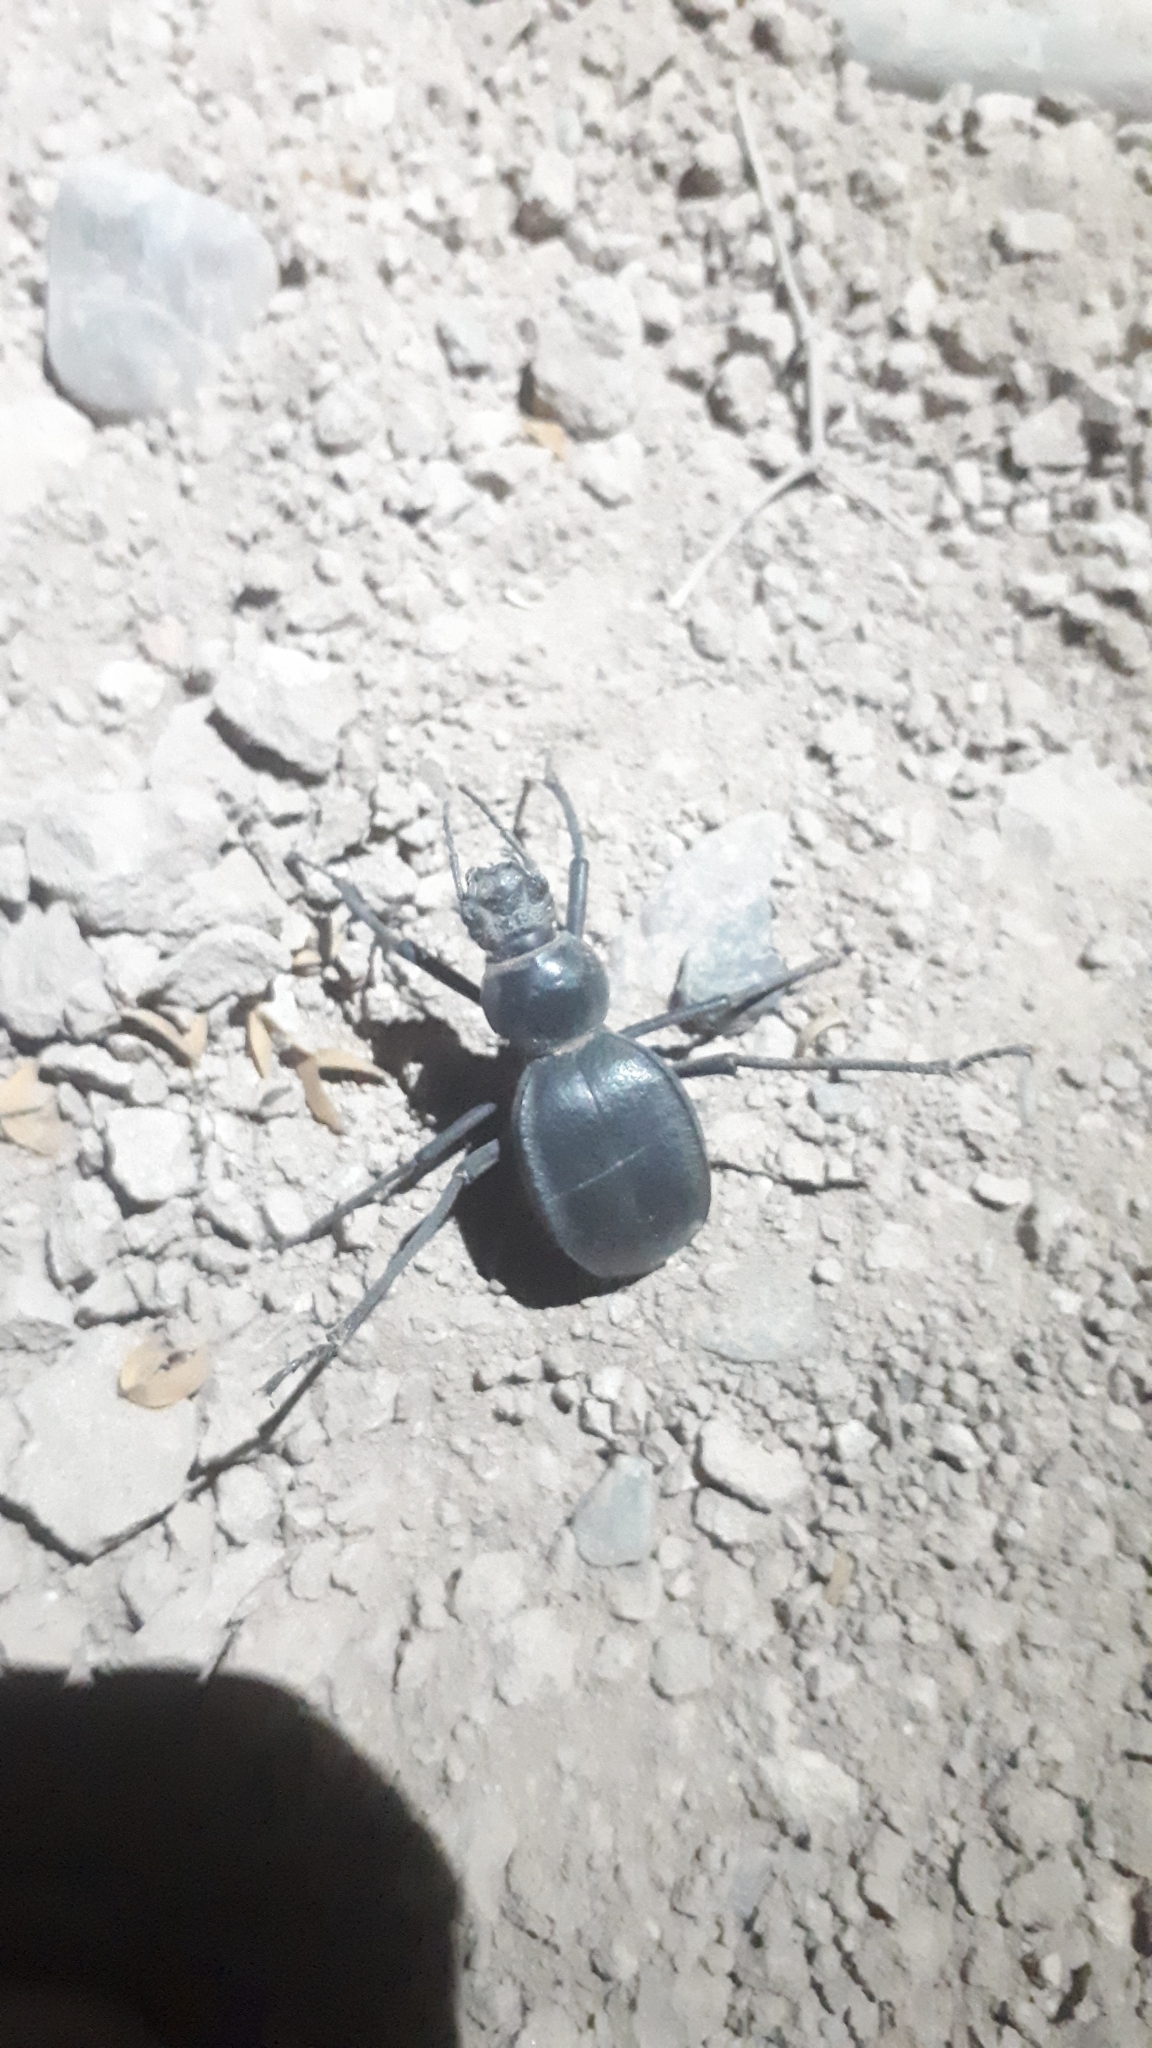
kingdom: Animalia
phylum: Arthropoda
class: Insecta
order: Coleoptera
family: Tenebrionidae
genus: Megelenophorus
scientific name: Megelenophorus
